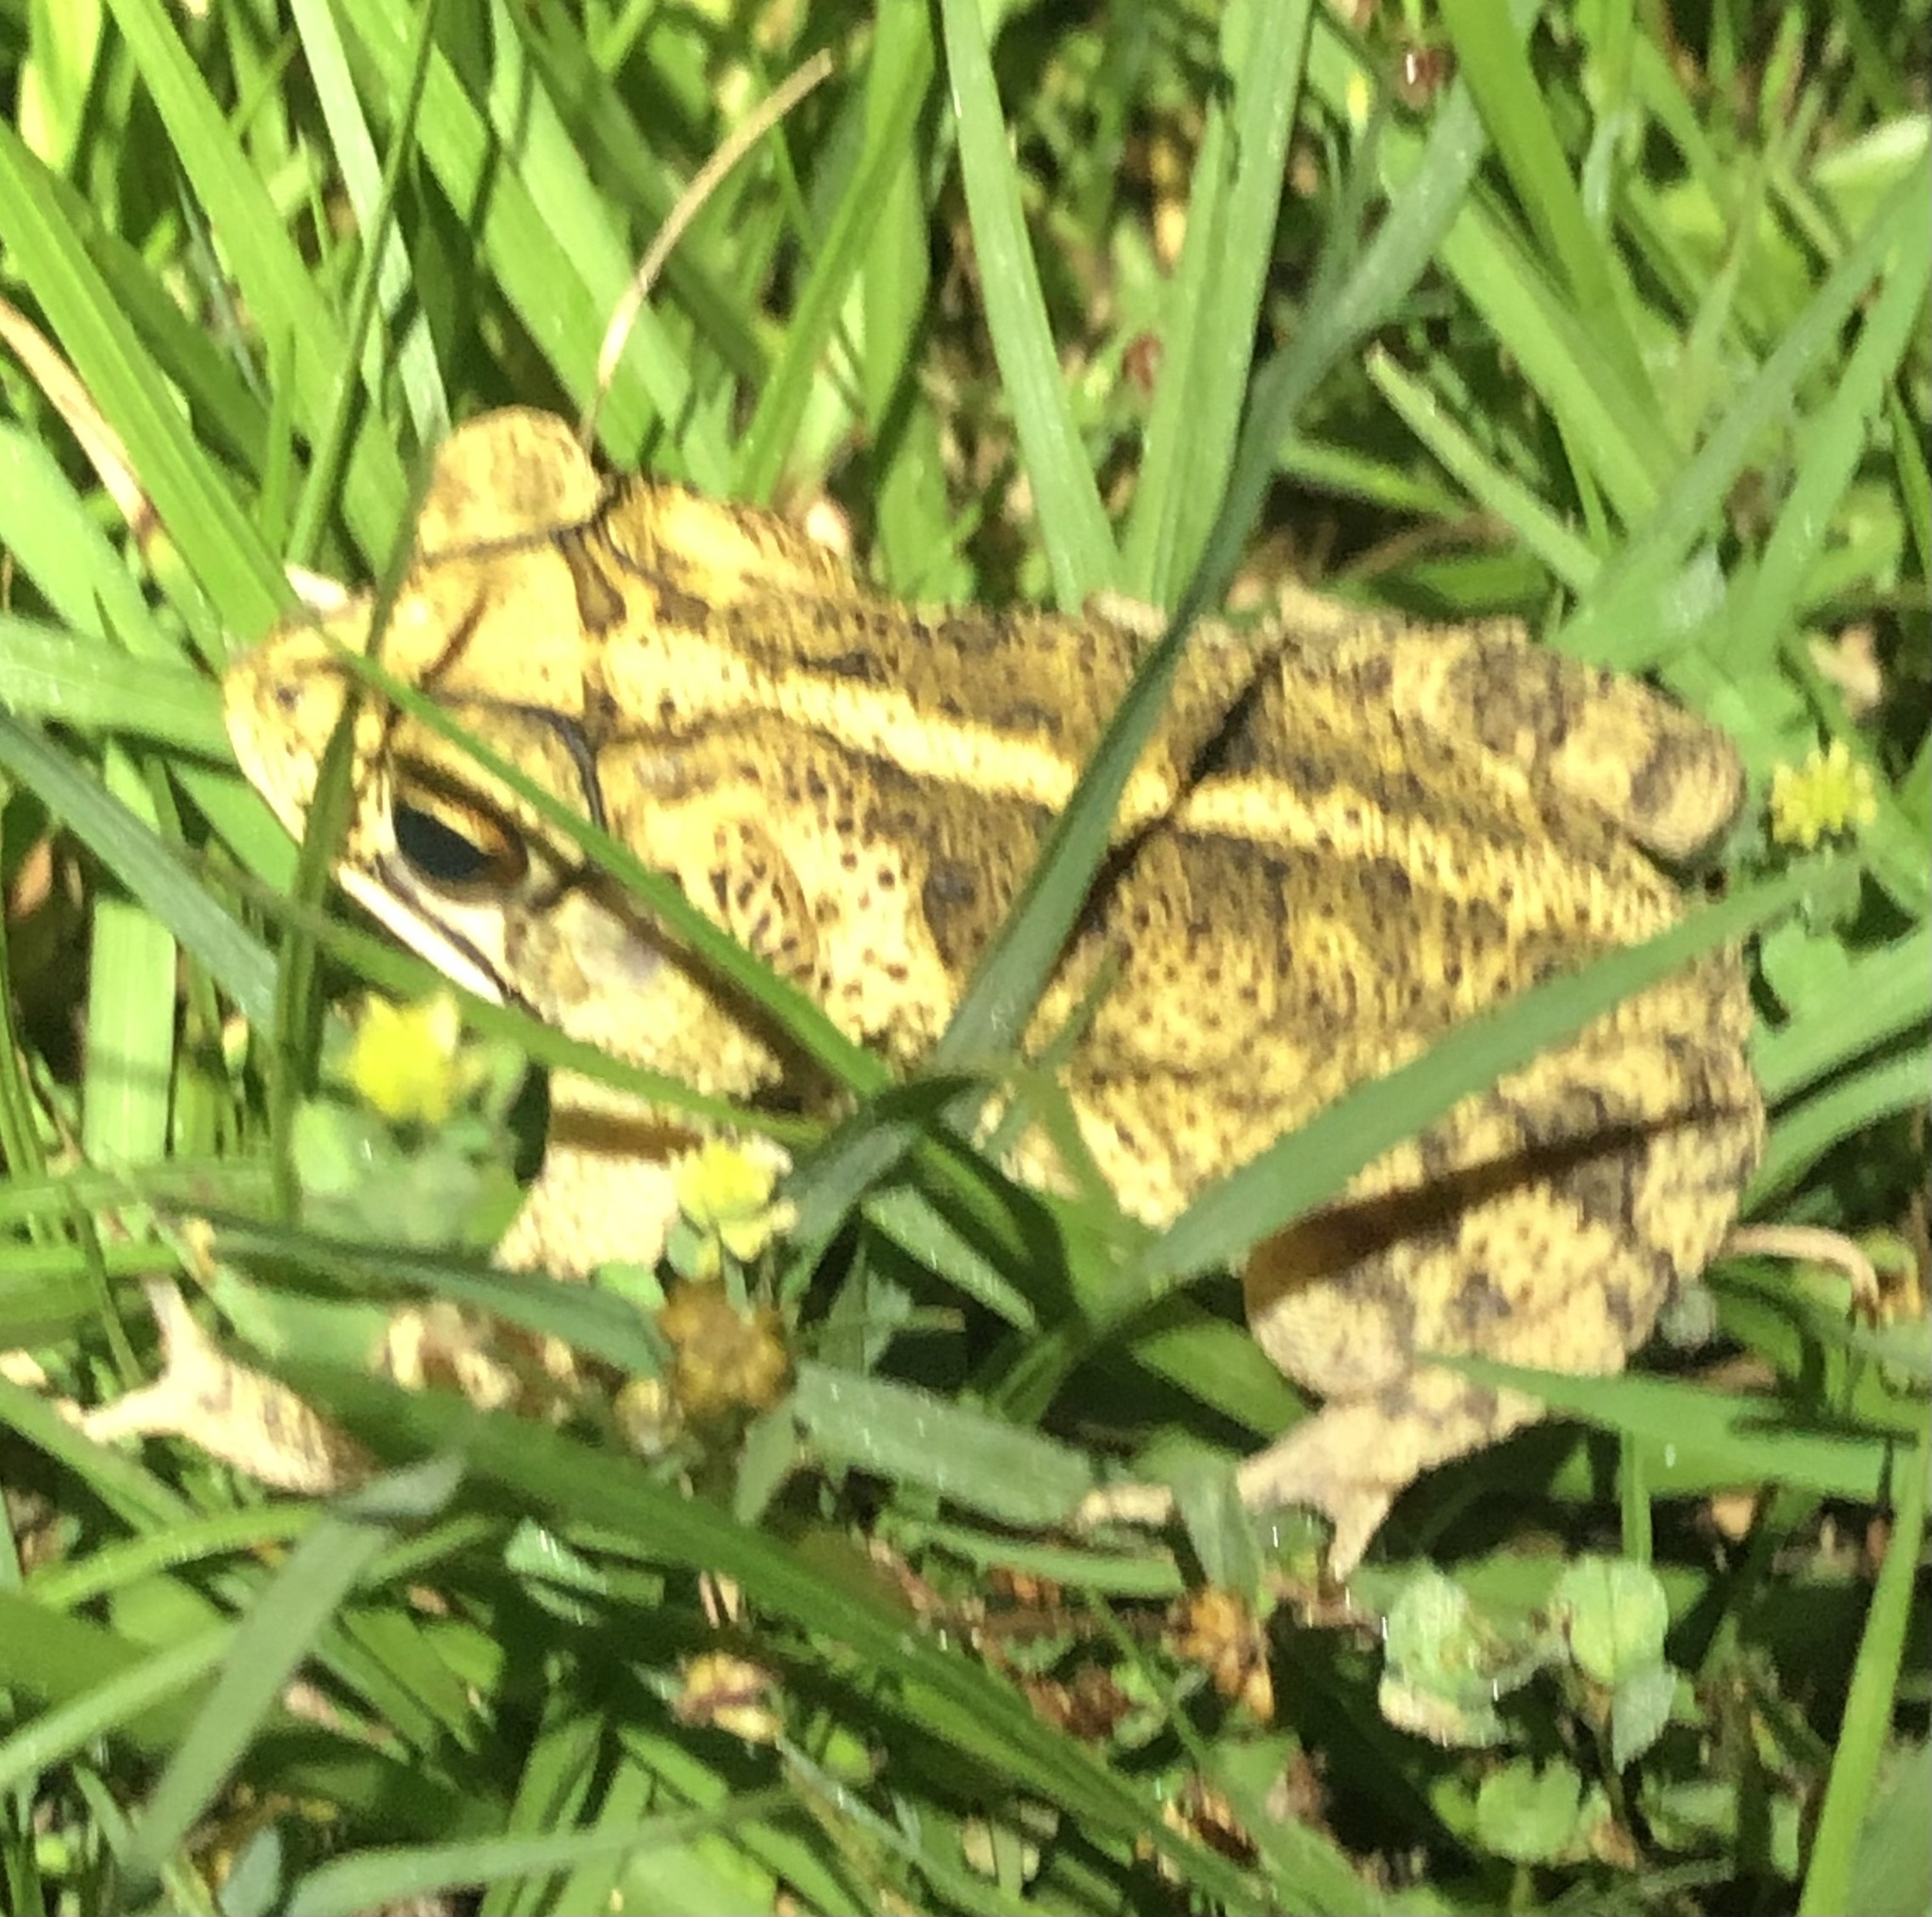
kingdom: Animalia
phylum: Chordata
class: Amphibia
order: Anura
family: Bufonidae
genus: Incilius
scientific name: Incilius nebulifer
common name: Gulf coast toad
